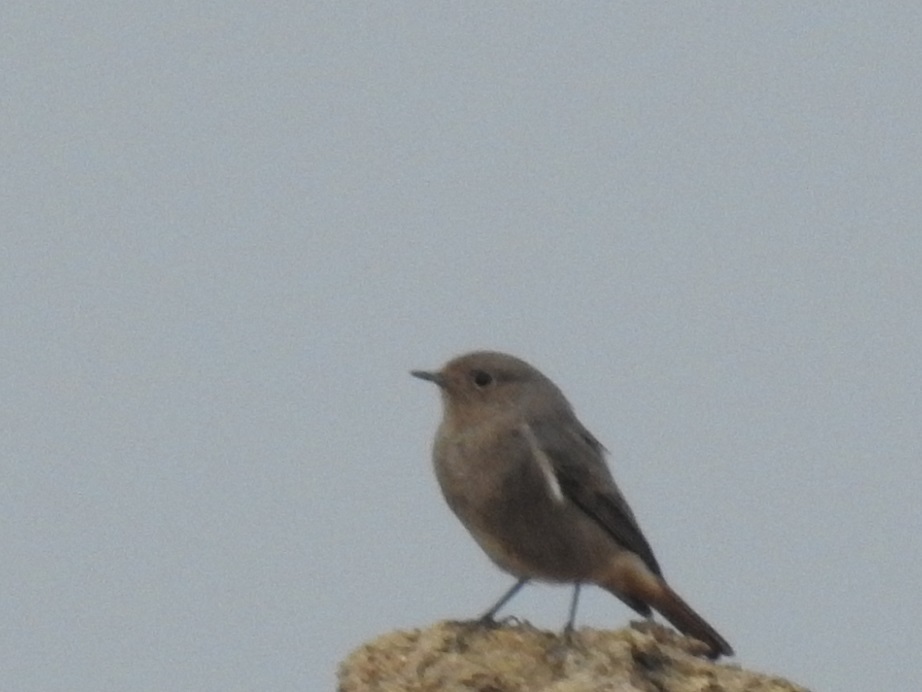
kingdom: Animalia
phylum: Chordata
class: Aves
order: Passeriformes
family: Muscicapidae
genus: Phoenicurus
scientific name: Phoenicurus ochruros
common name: Black redstart
